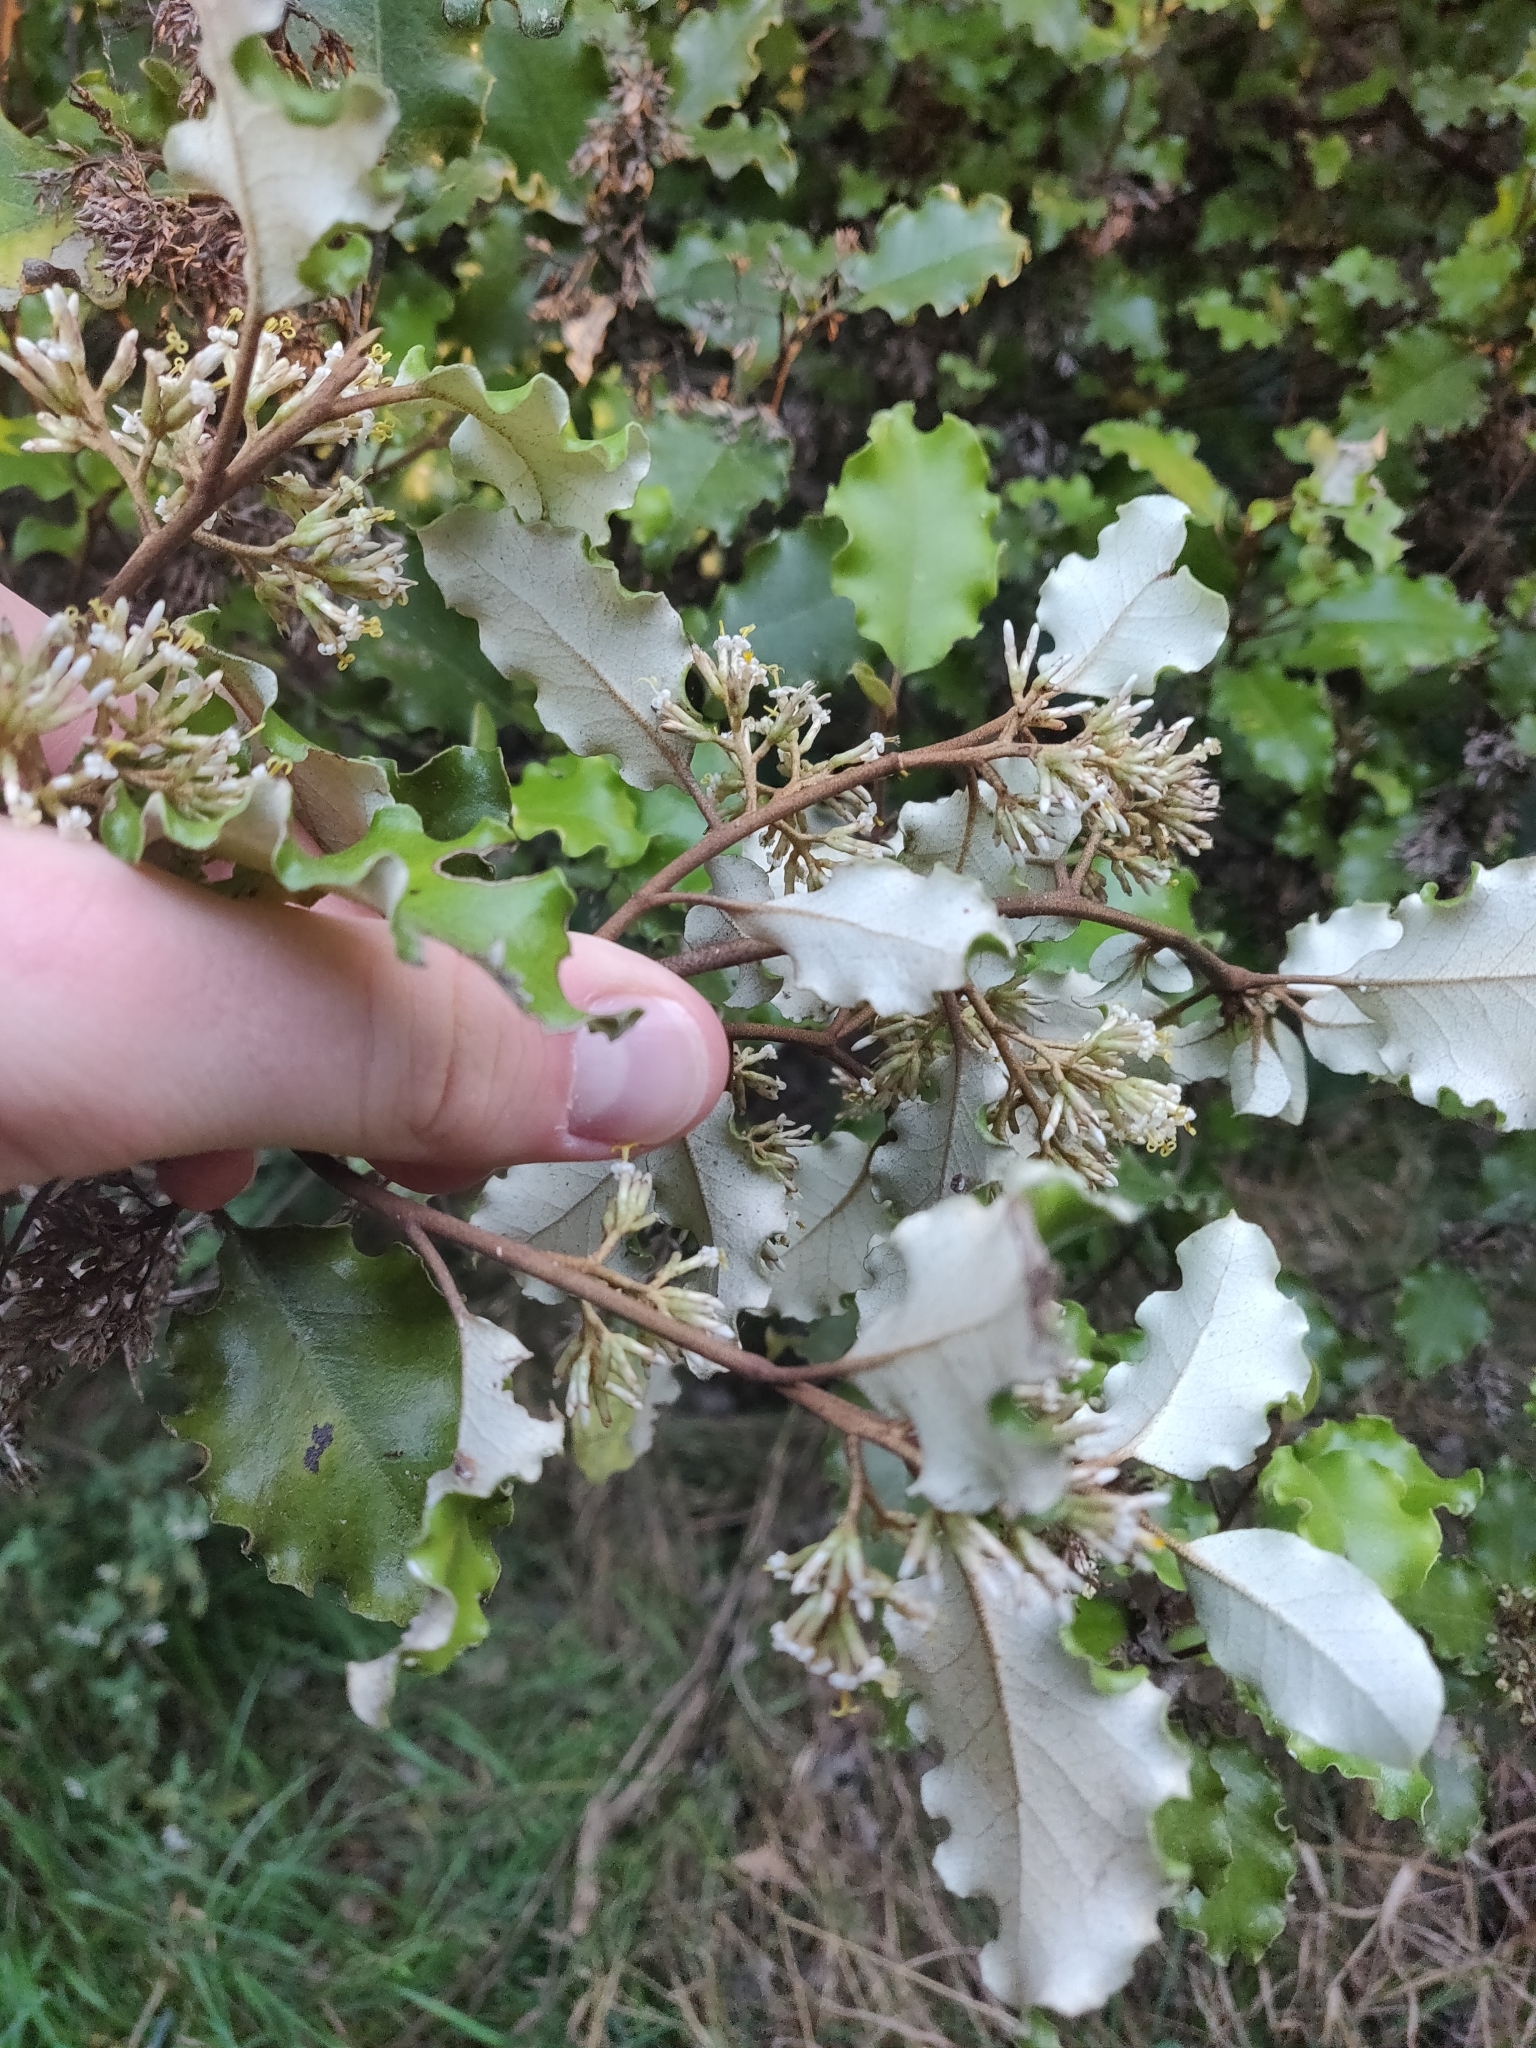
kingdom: Plantae
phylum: Tracheophyta
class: Magnoliopsida
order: Asterales
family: Asteraceae
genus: Olearia
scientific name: Olearia paniculata
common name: Akiraho
